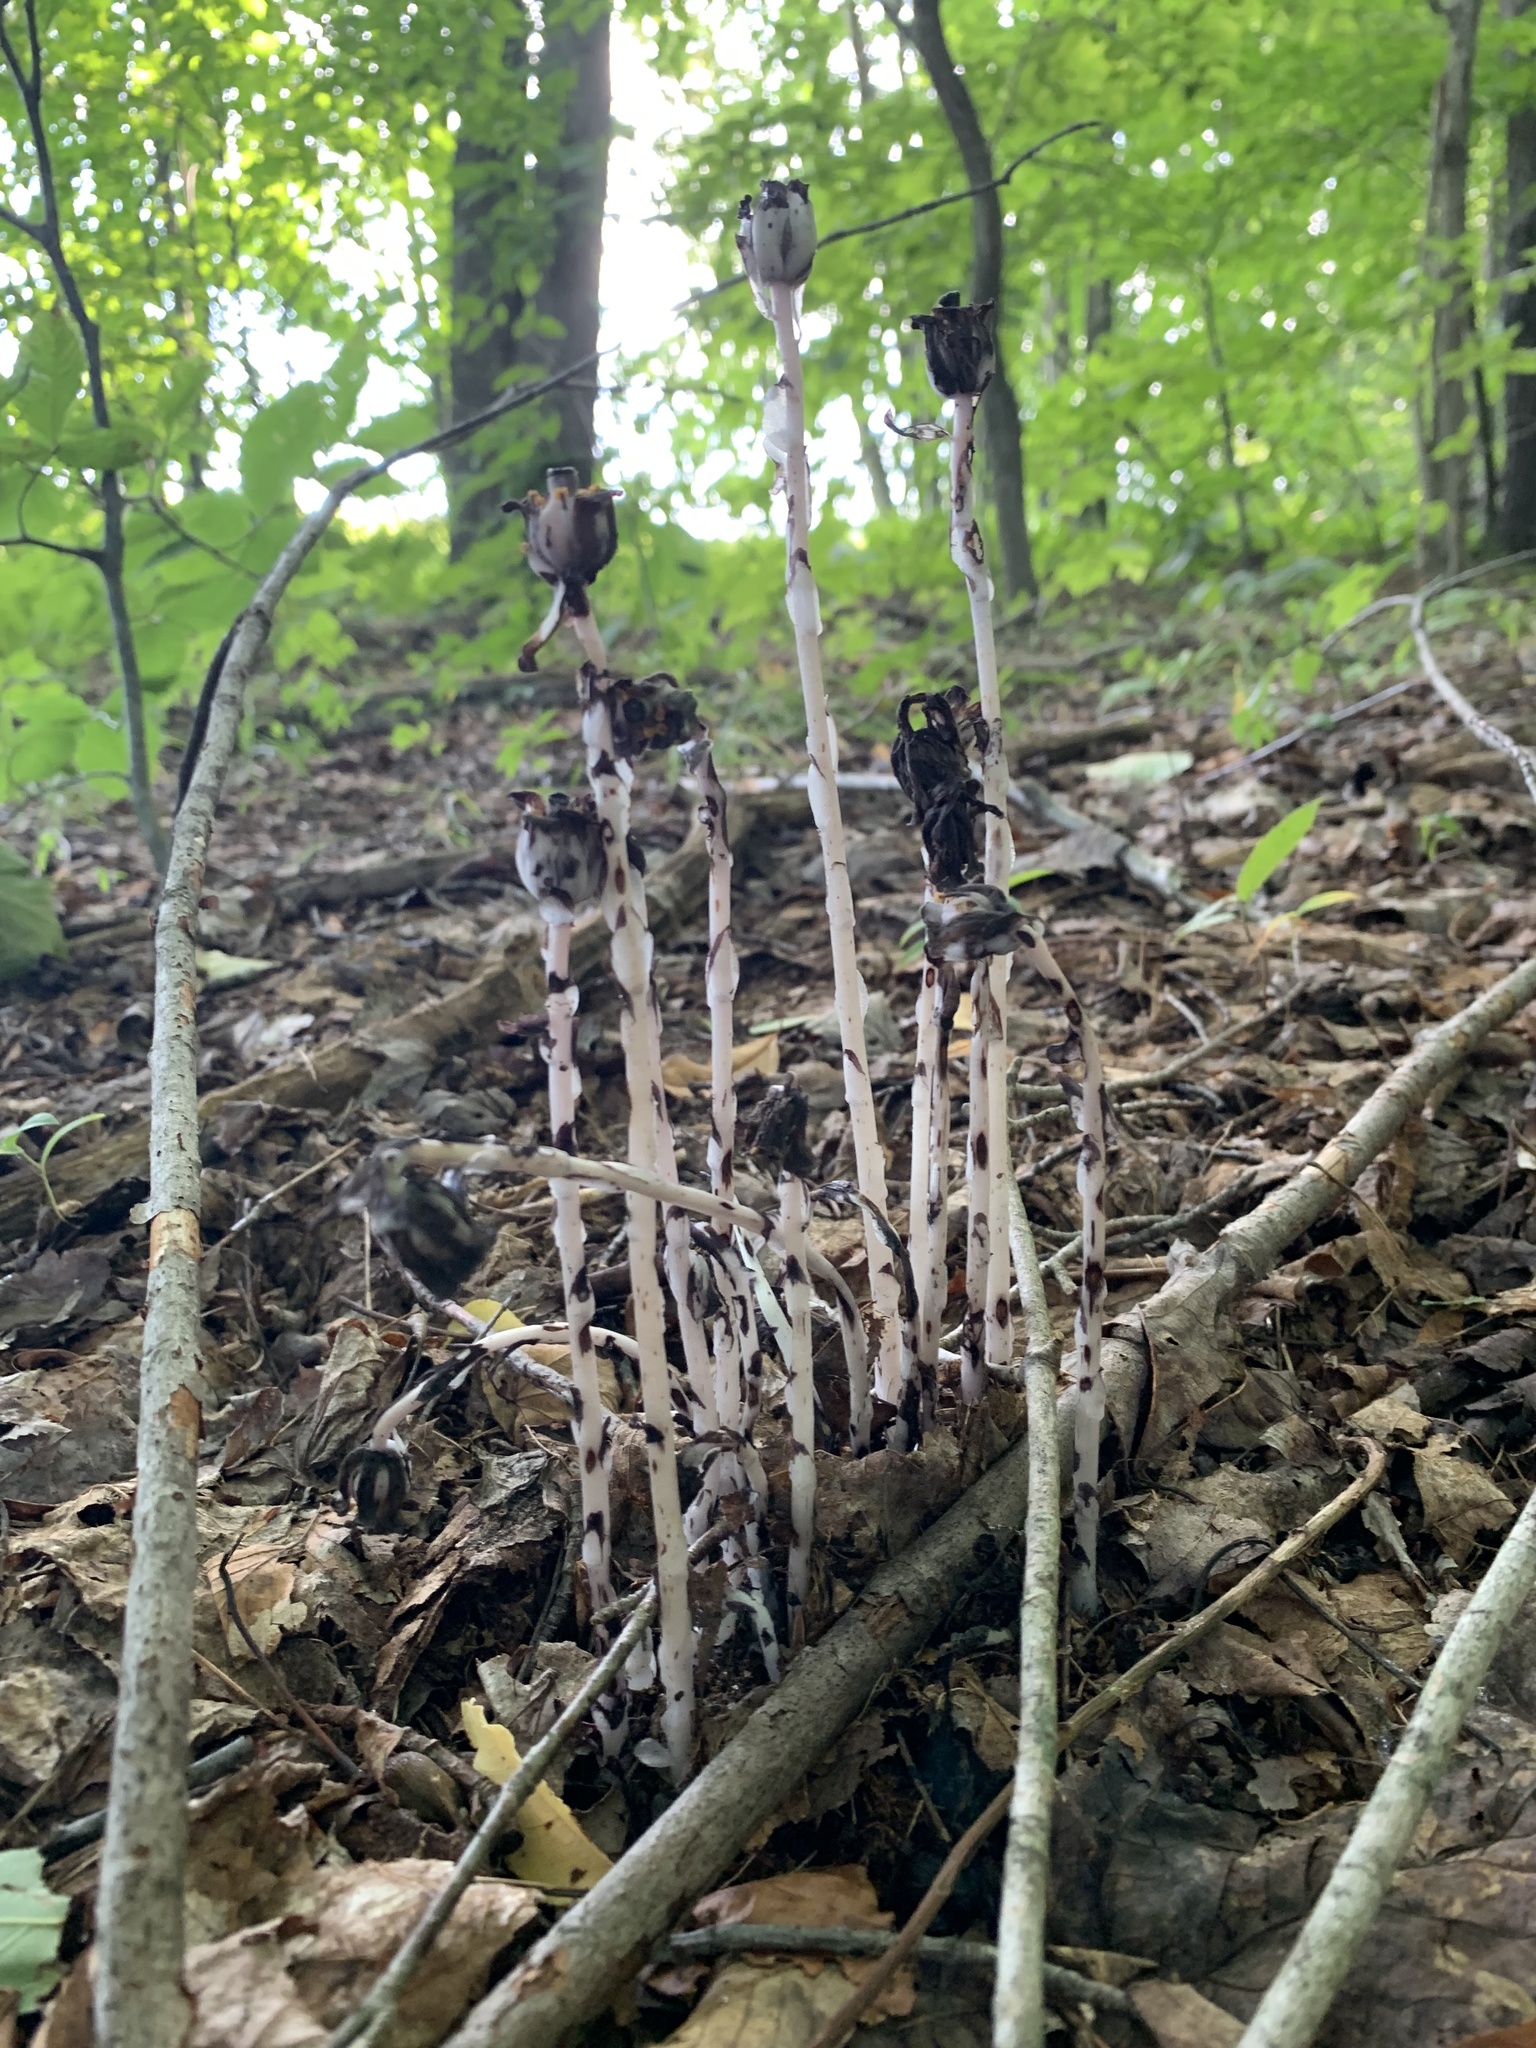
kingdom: Plantae
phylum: Tracheophyta
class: Magnoliopsida
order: Ericales
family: Ericaceae
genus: Monotropa
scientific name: Monotropa uniflora
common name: Convulsion root
